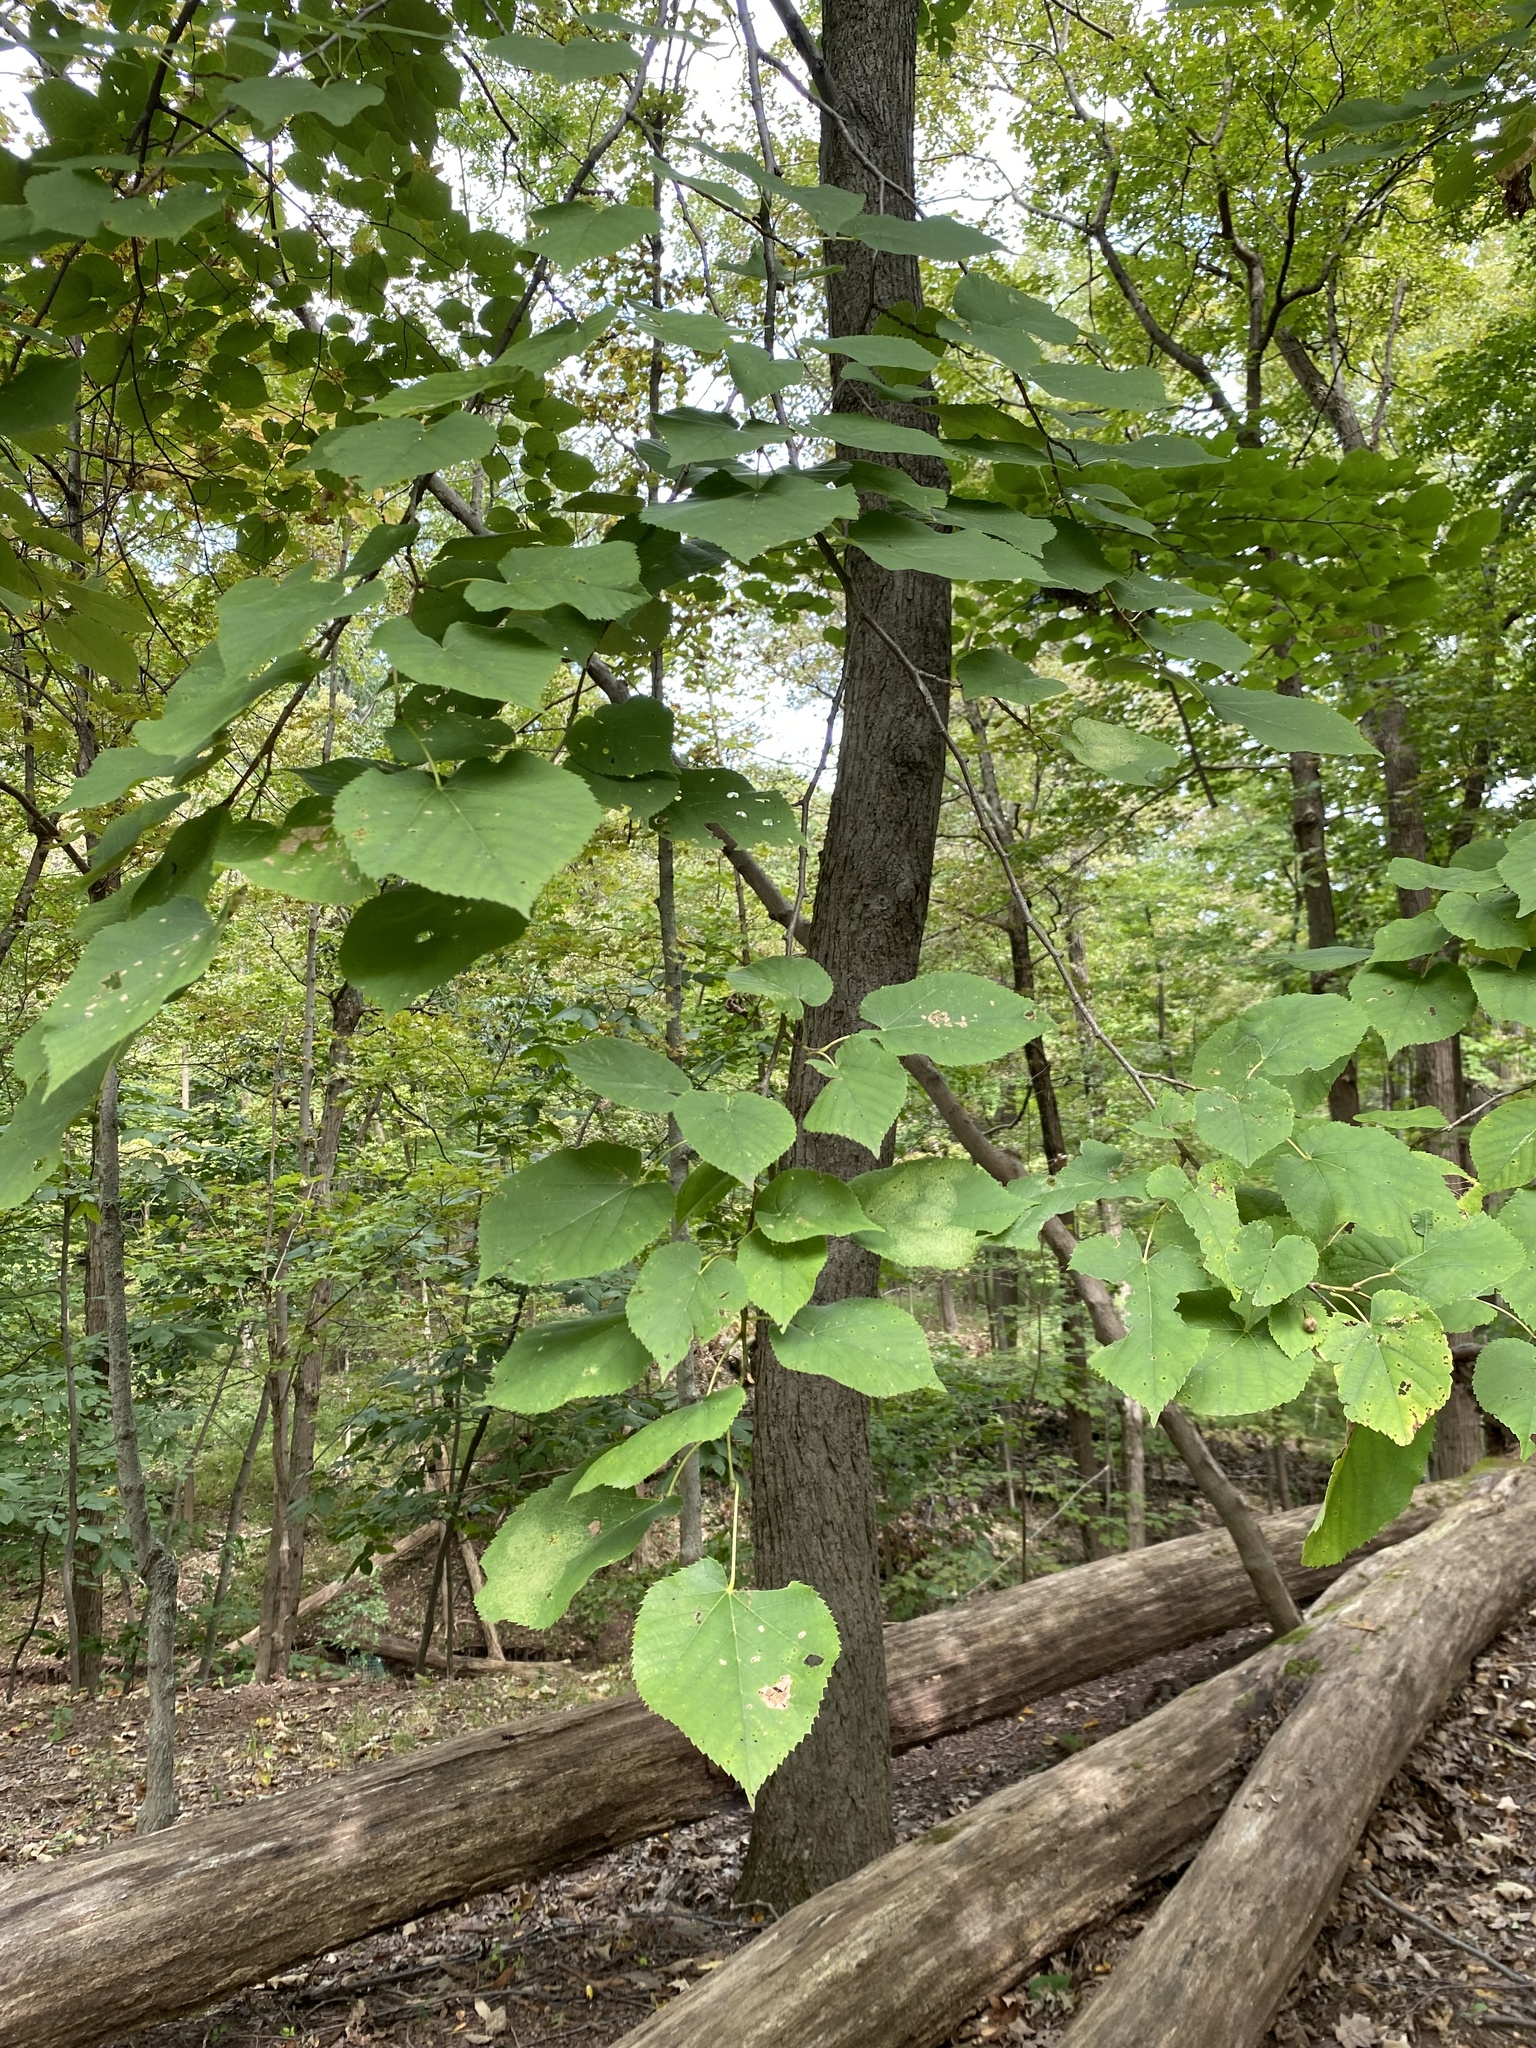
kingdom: Plantae
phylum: Tracheophyta
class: Magnoliopsida
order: Malvales
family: Malvaceae
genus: Tilia
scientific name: Tilia americana
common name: Basswood
